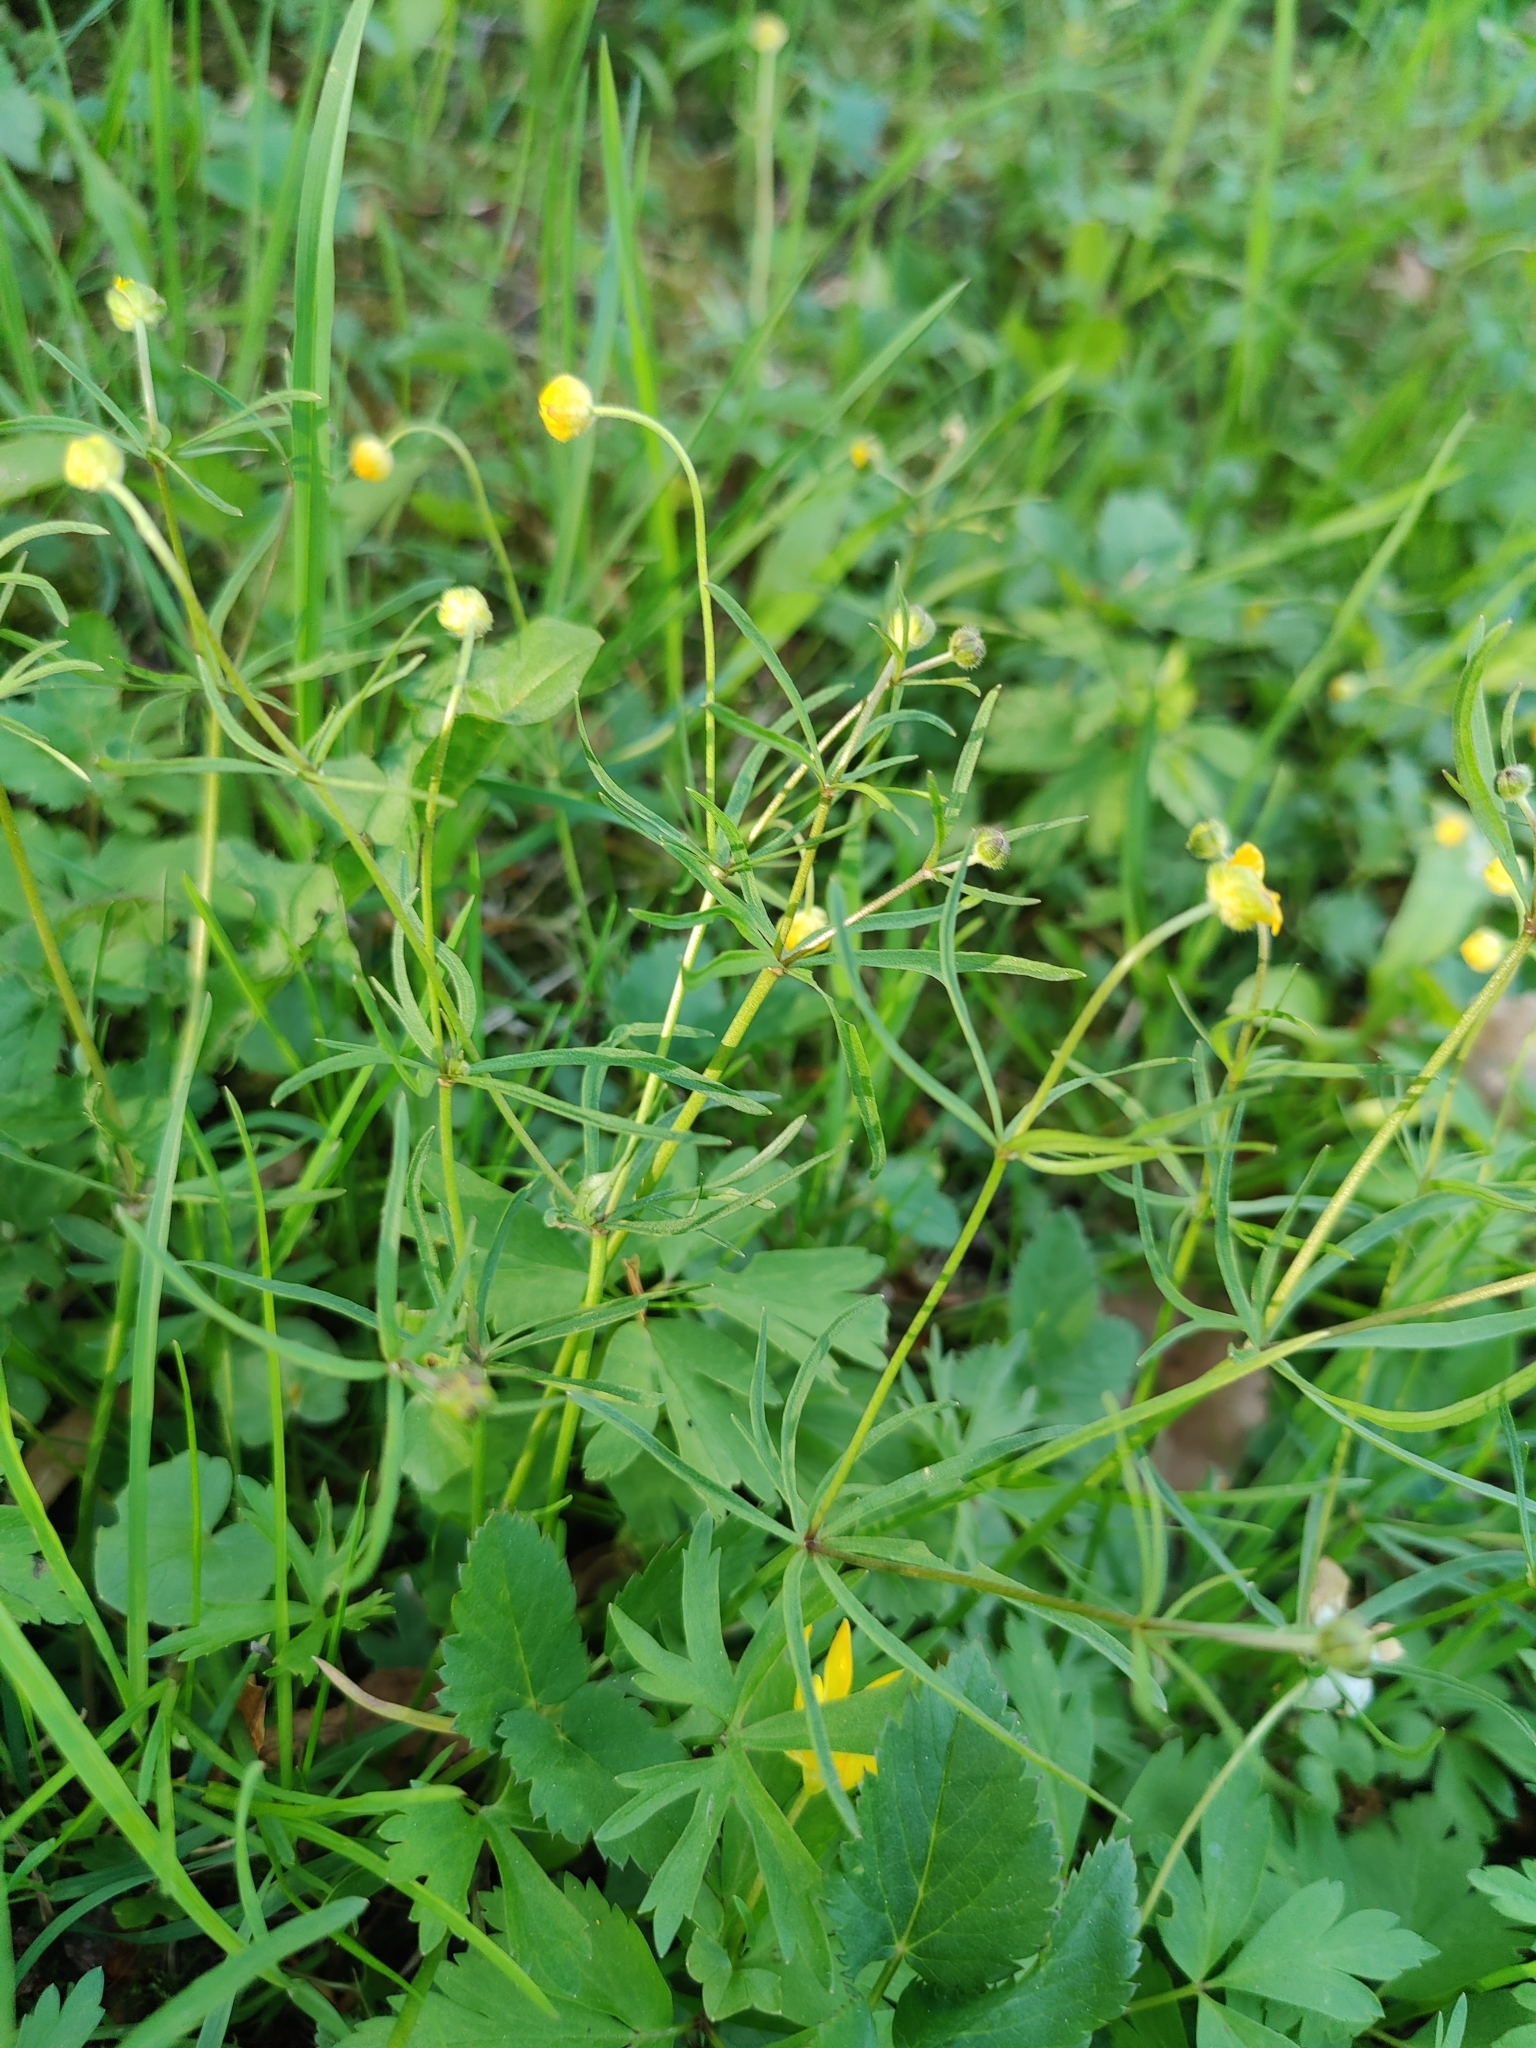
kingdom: Plantae
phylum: Tracheophyta
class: Magnoliopsida
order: Ranunculales
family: Ranunculaceae
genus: Ranunculus
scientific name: Ranunculus auricomus
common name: Goldilocks buttercup
